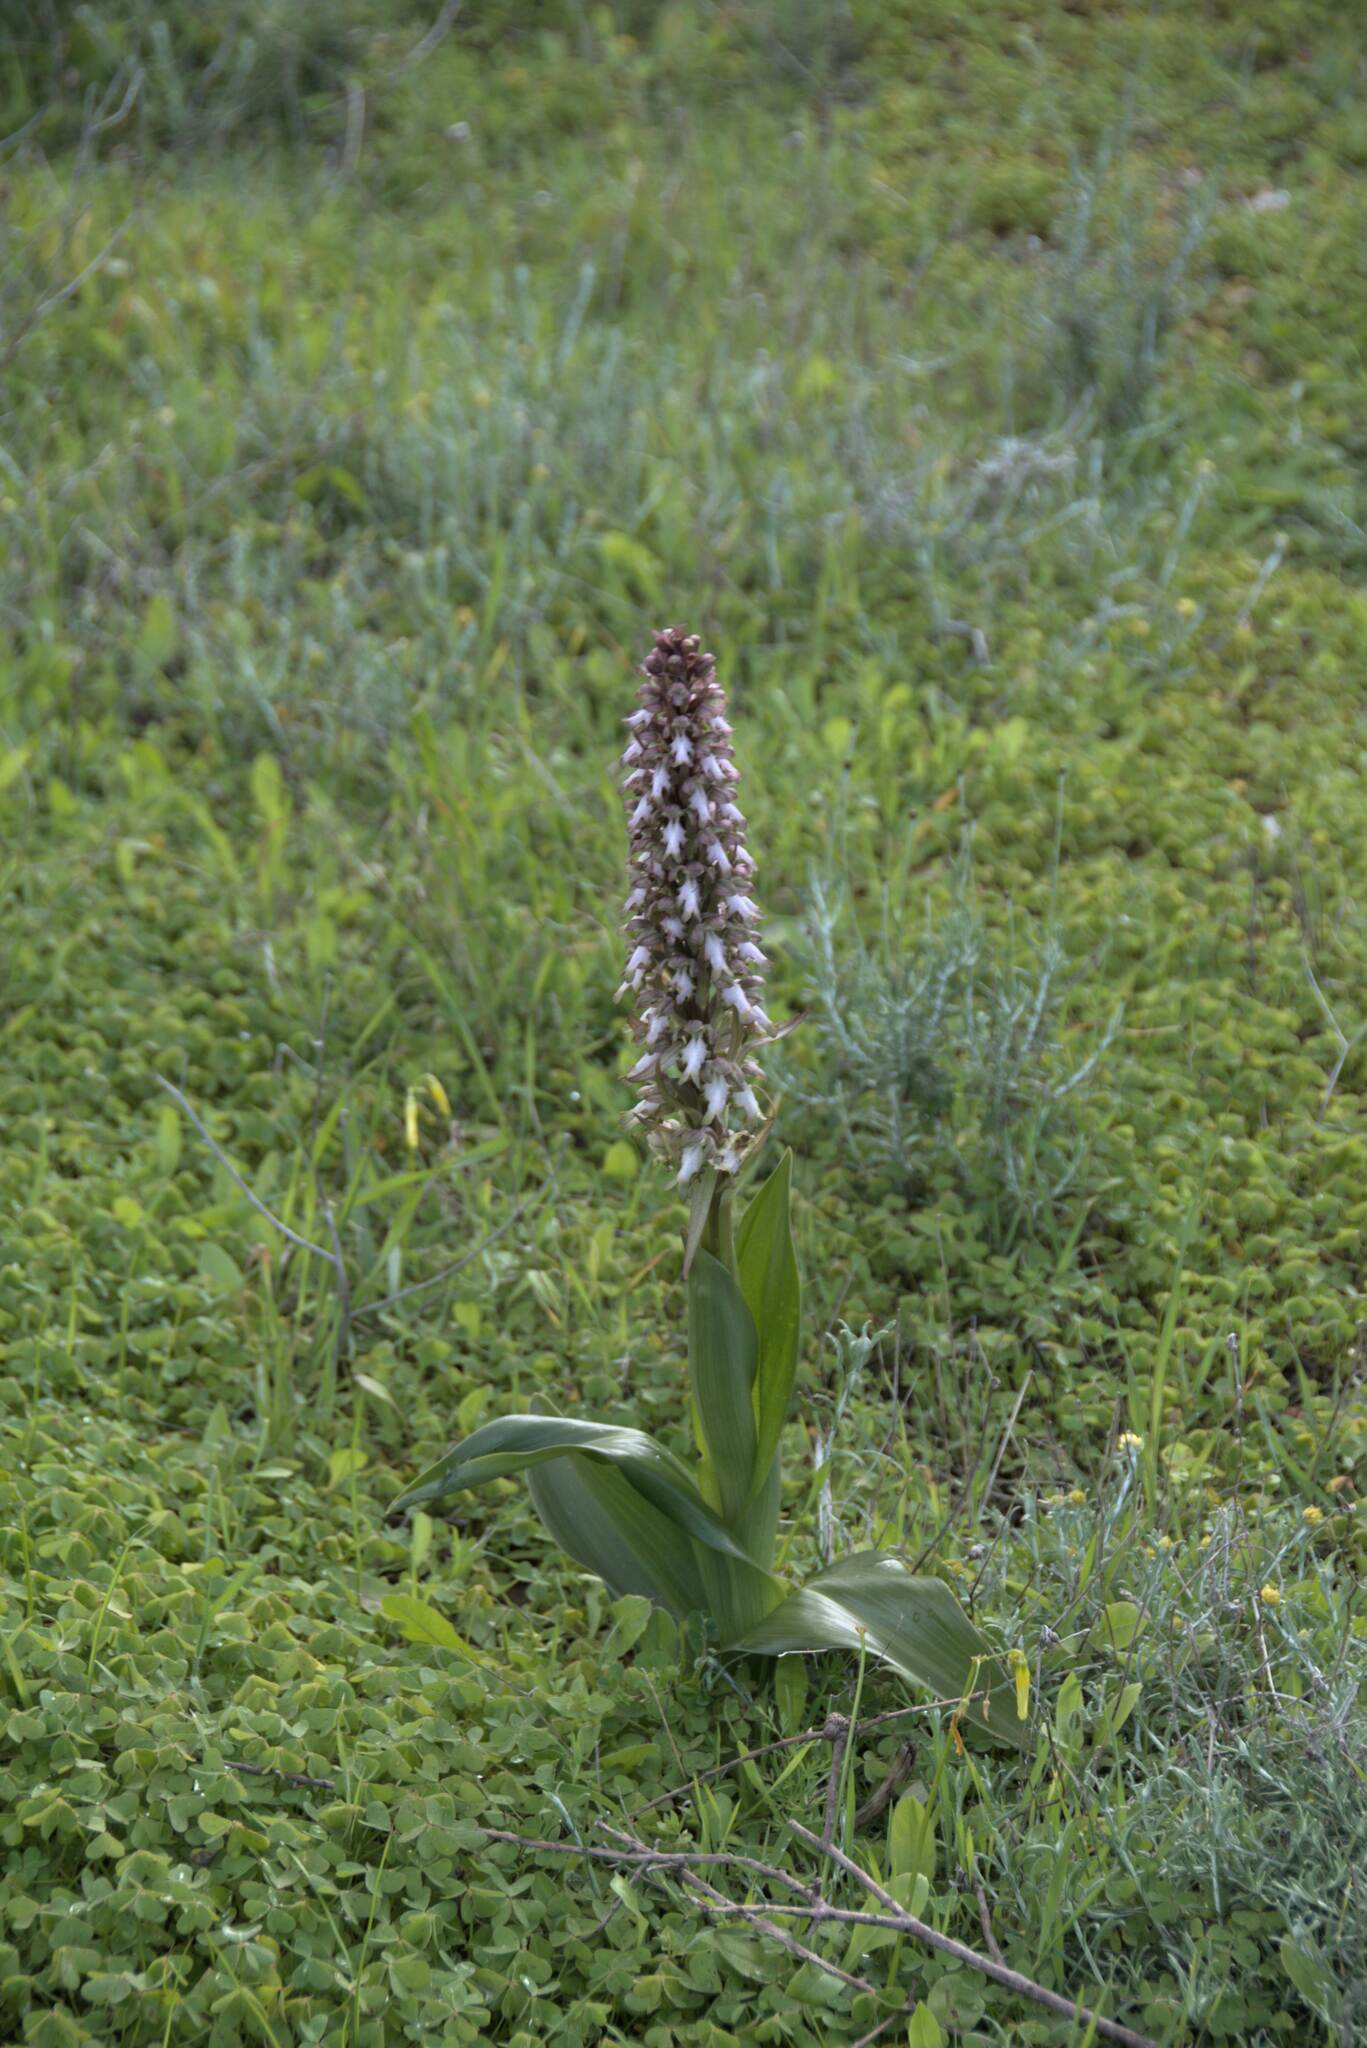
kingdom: Plantae
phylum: Tracheophyta
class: Liliopsida
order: Asparagales
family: Orchidaceae
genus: Himantoglossum
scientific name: Himantoglossum robertianum
